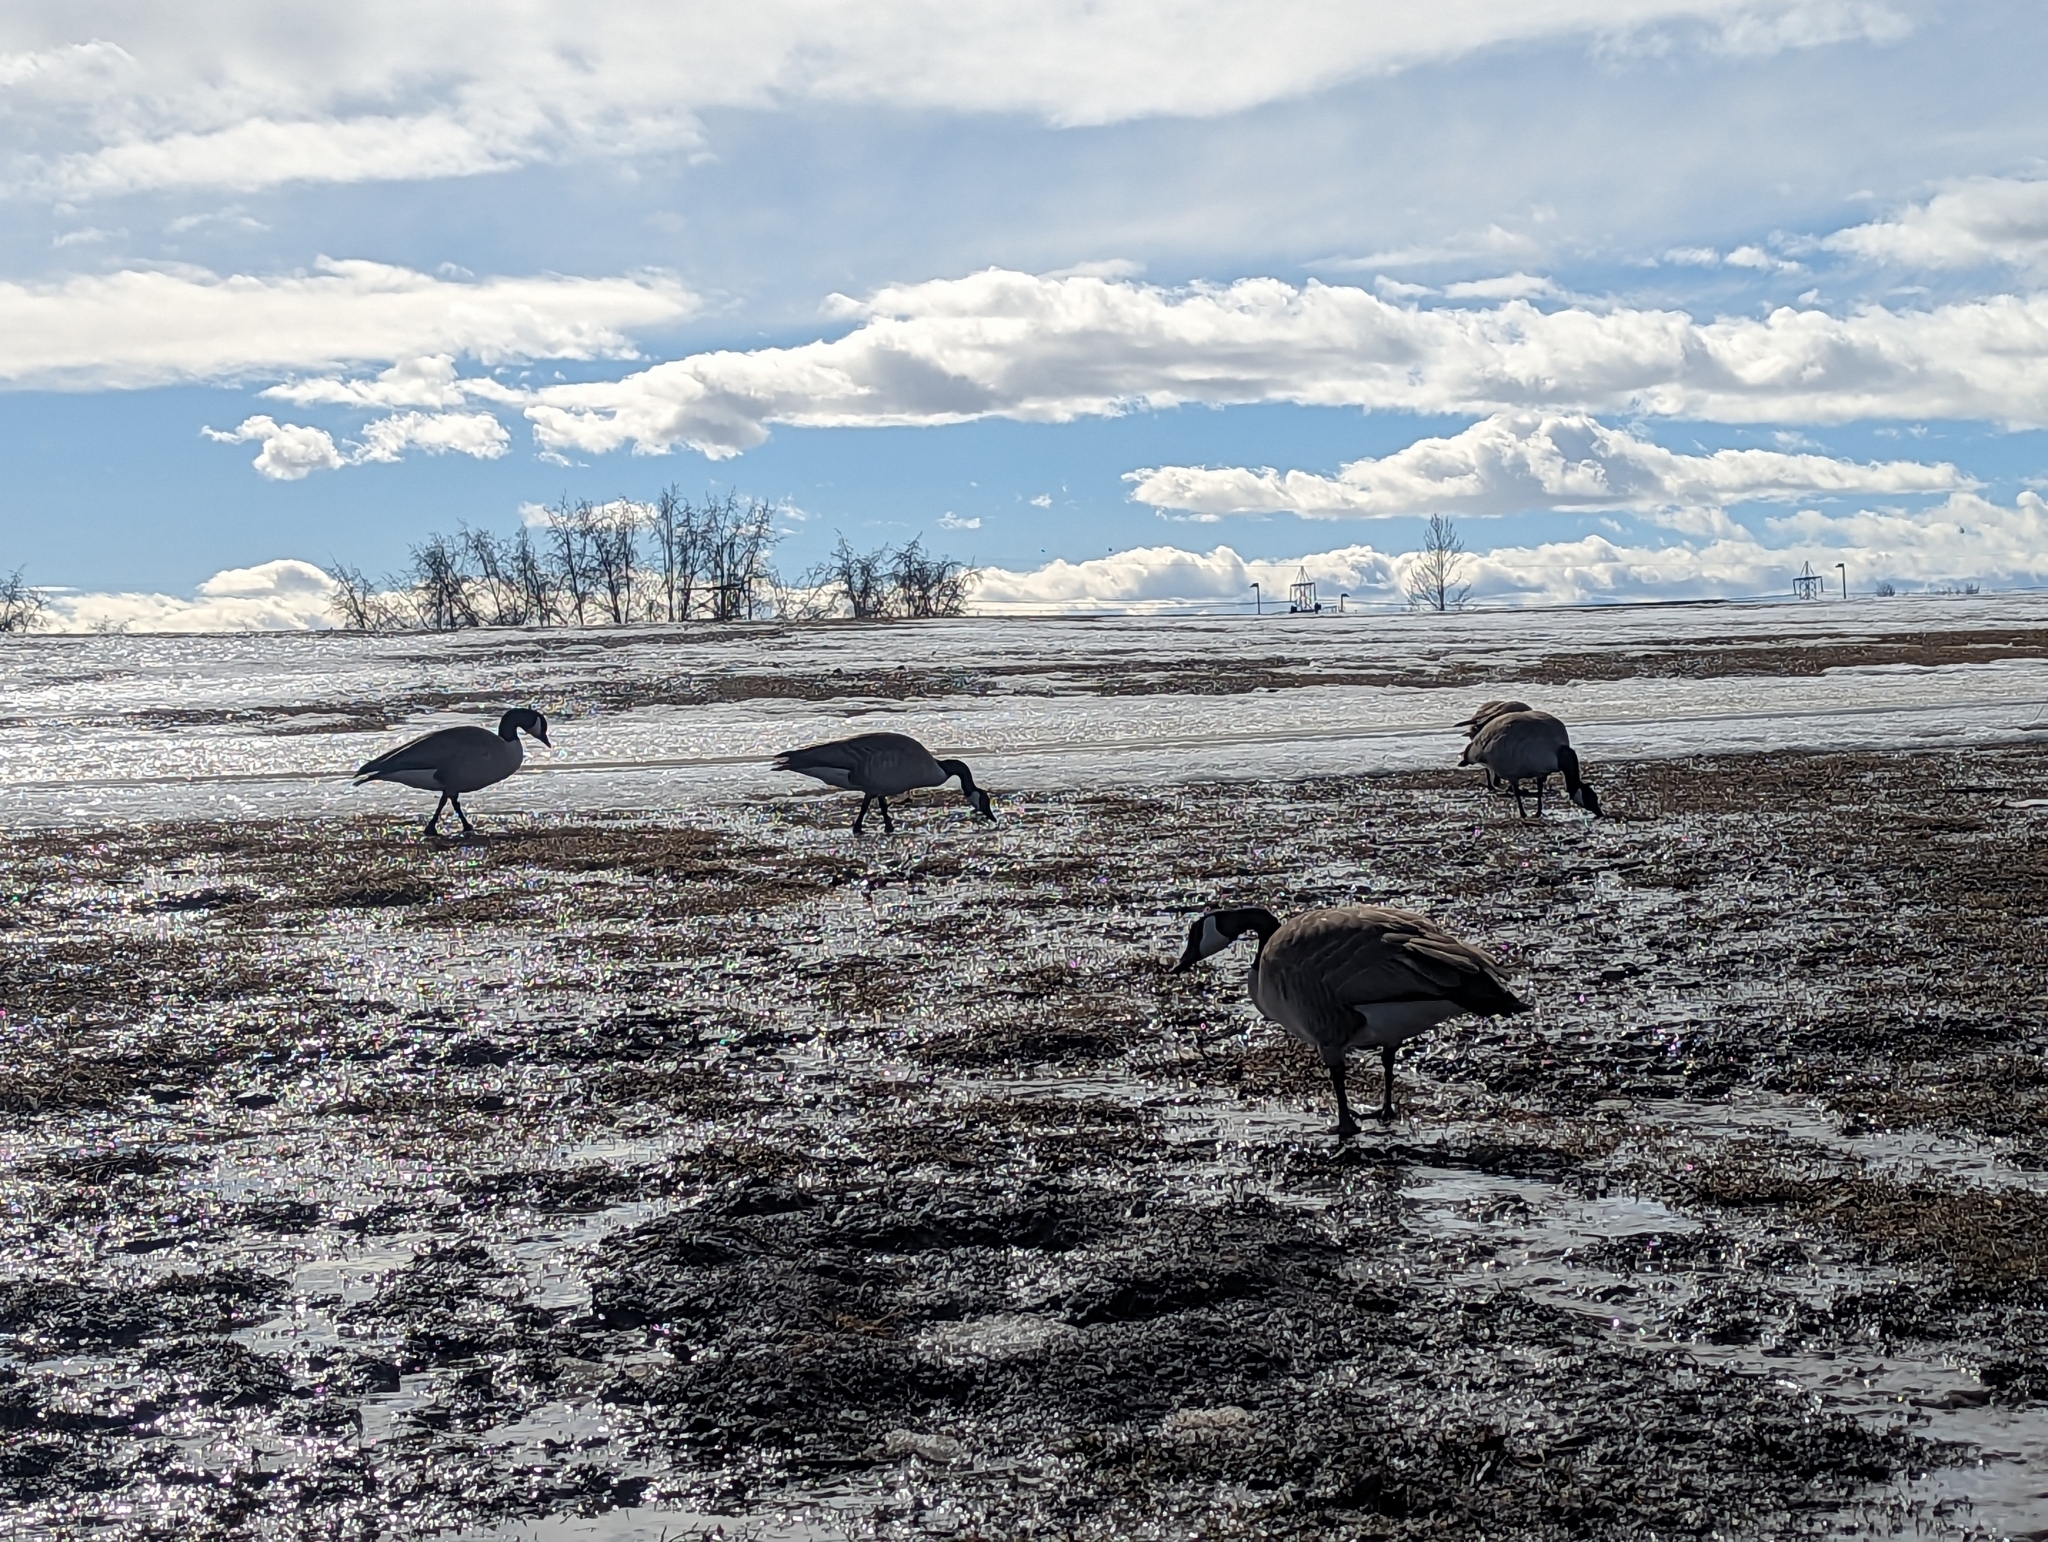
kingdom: Animalia
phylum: Chordata
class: Aves
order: Anseriformes
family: Anatidae
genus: Branta
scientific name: Branta canadensis
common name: Canada goose
